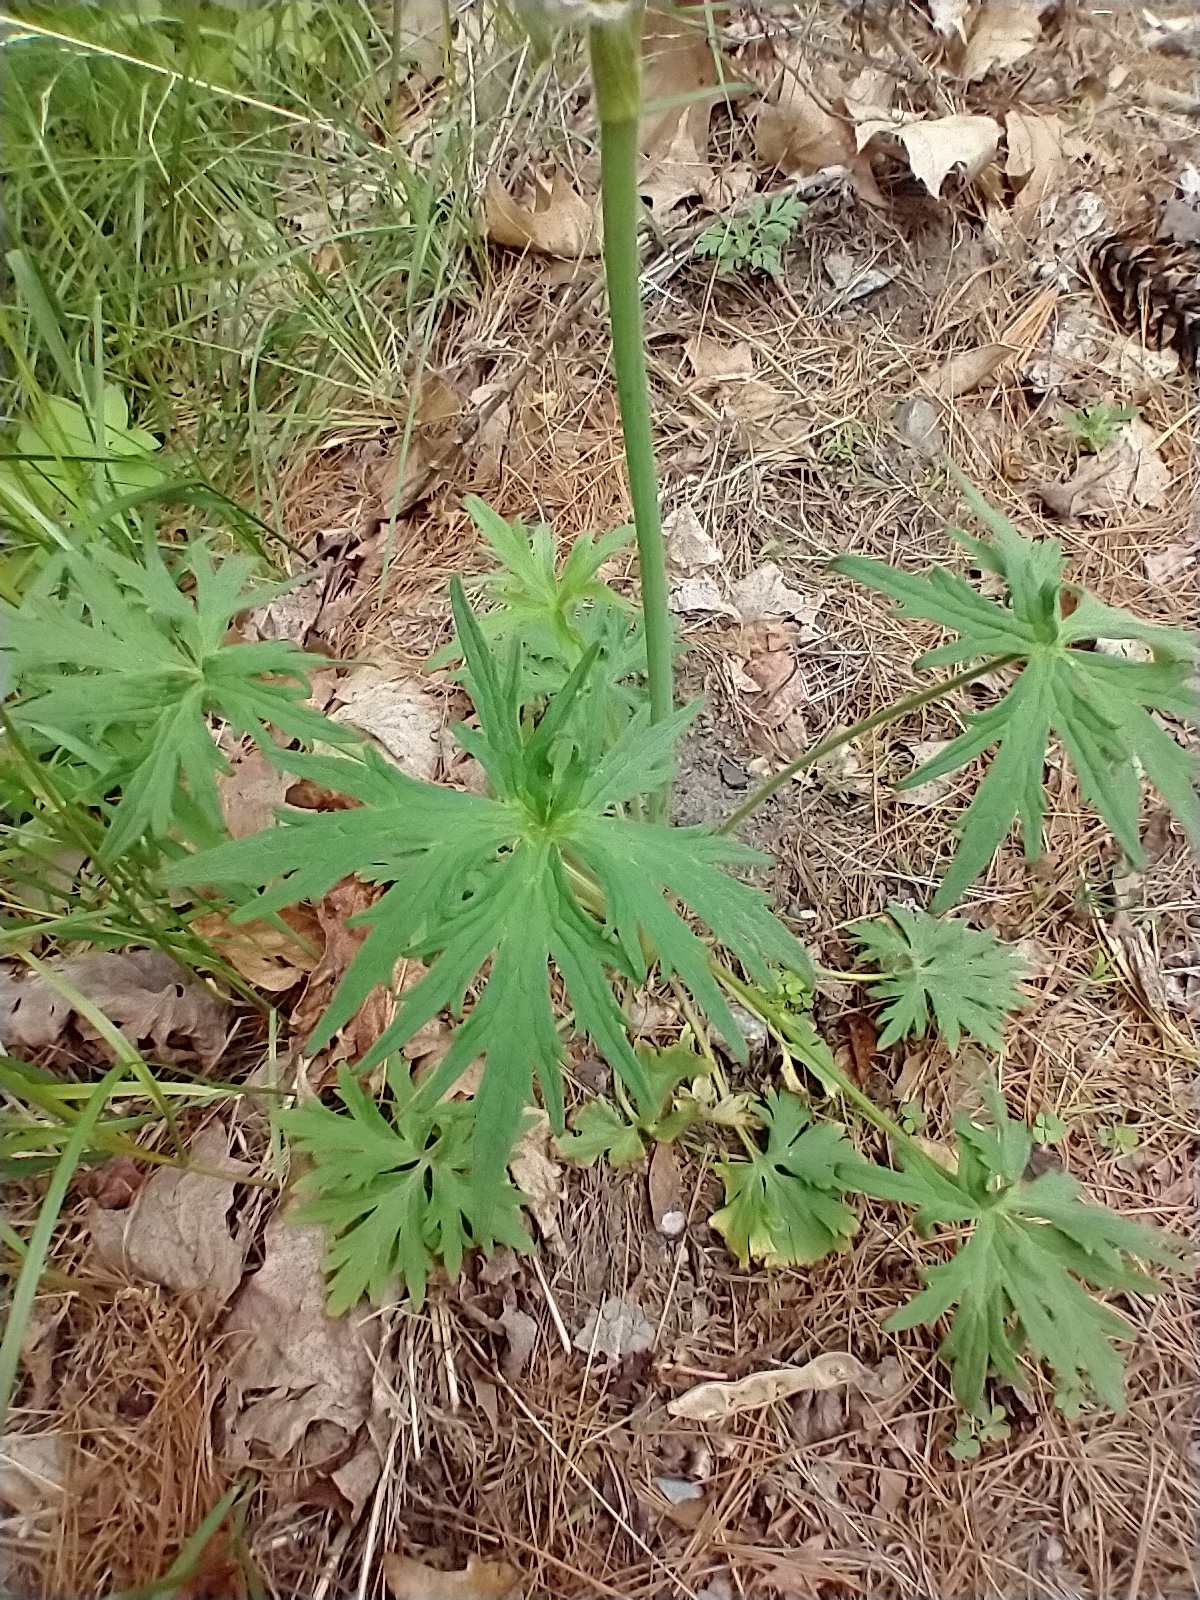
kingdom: Plantae
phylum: Tracheophyta
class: Magnoliopsida
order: Ranunculales
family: Ranunculaceae
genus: Ranunculus
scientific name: Ranunculus acris
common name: Meadow buttercup
